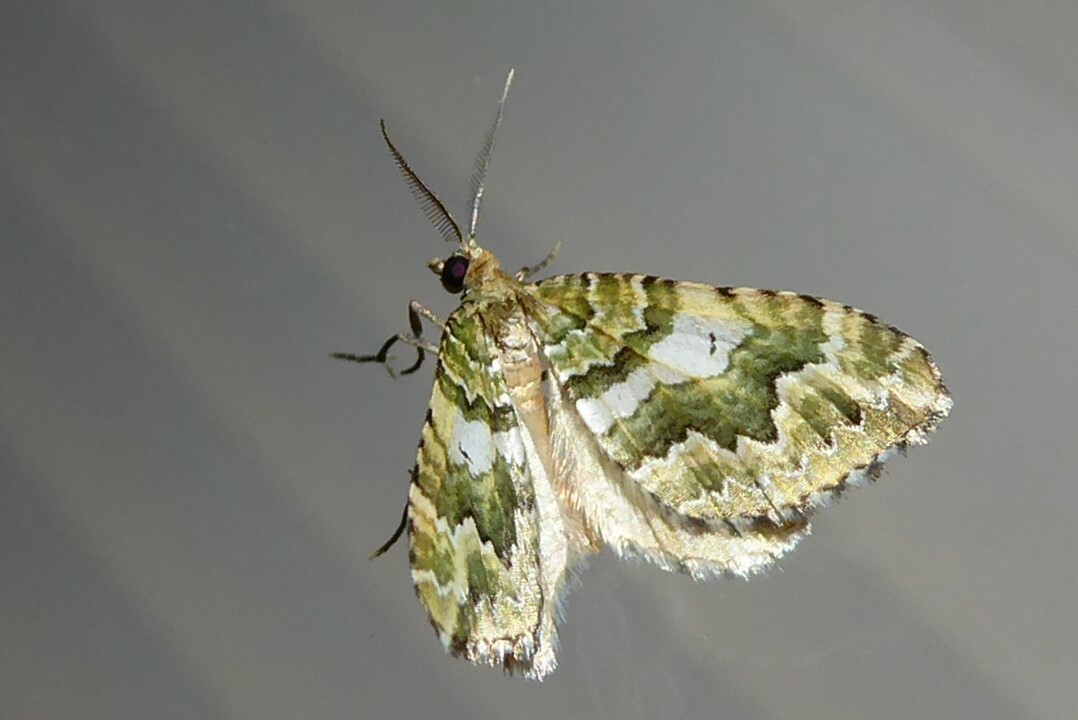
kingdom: Animalia
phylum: Arthropoda
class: Insecta
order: Lepidoptera
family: Geometridae
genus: Asaphodes
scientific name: Asaphodes beata
